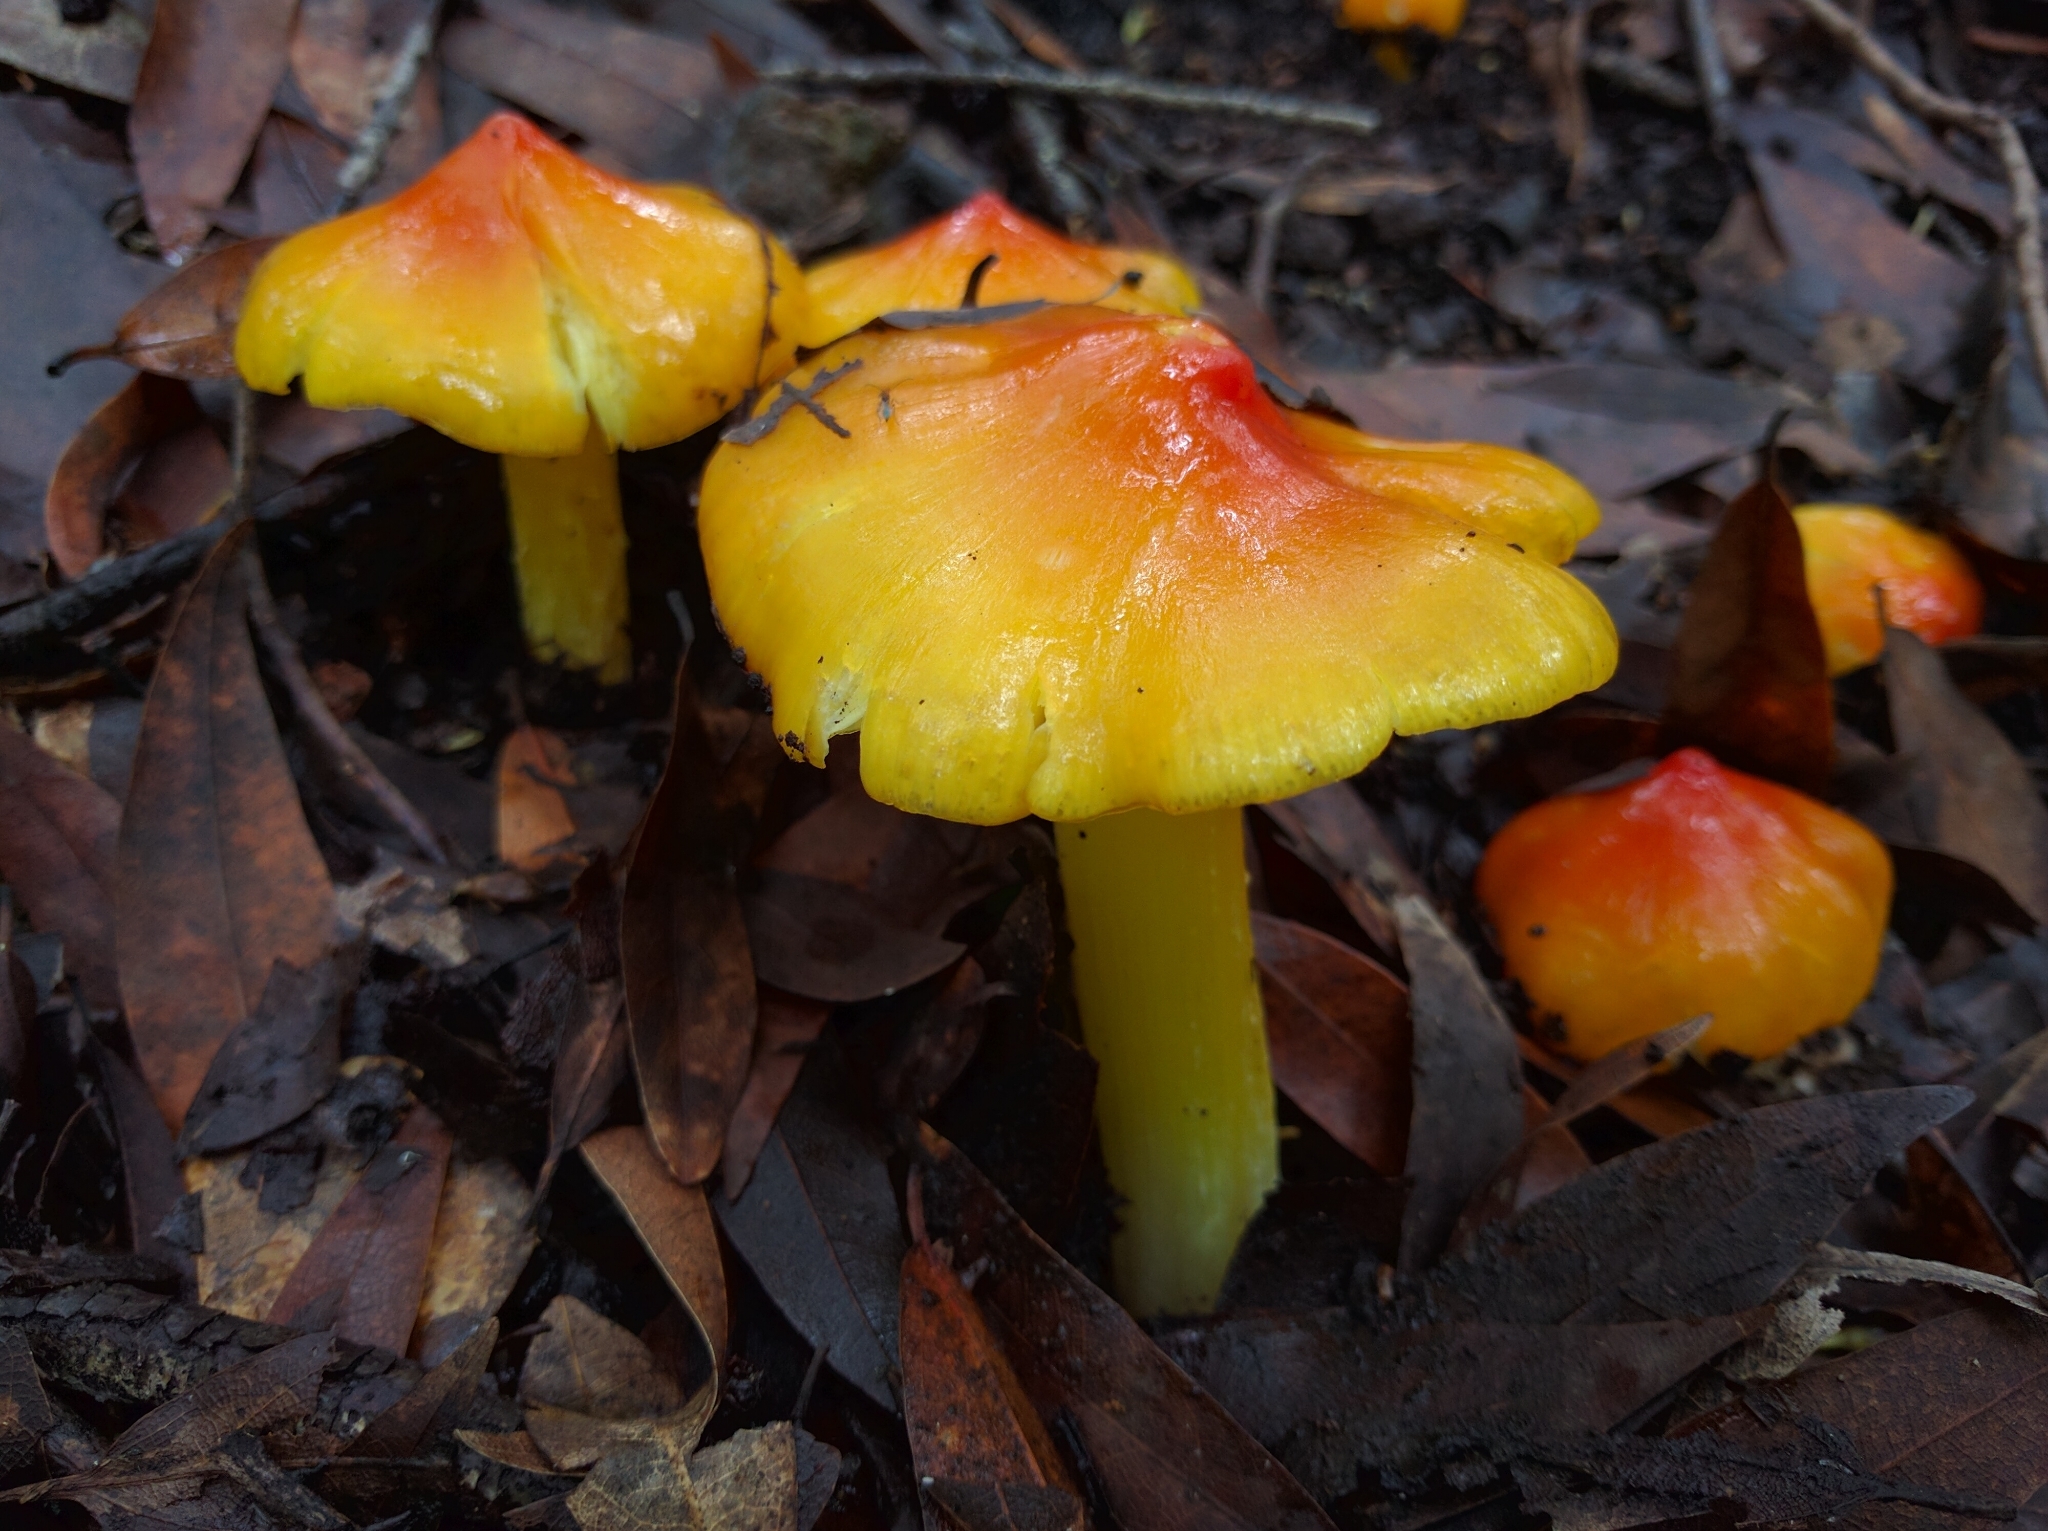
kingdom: Fungi
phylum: Basidiomycota
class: Agaricomycetes
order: Agaricales
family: Hygrophoraceae
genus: Hygrocybe
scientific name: Hygrocybe singeri
